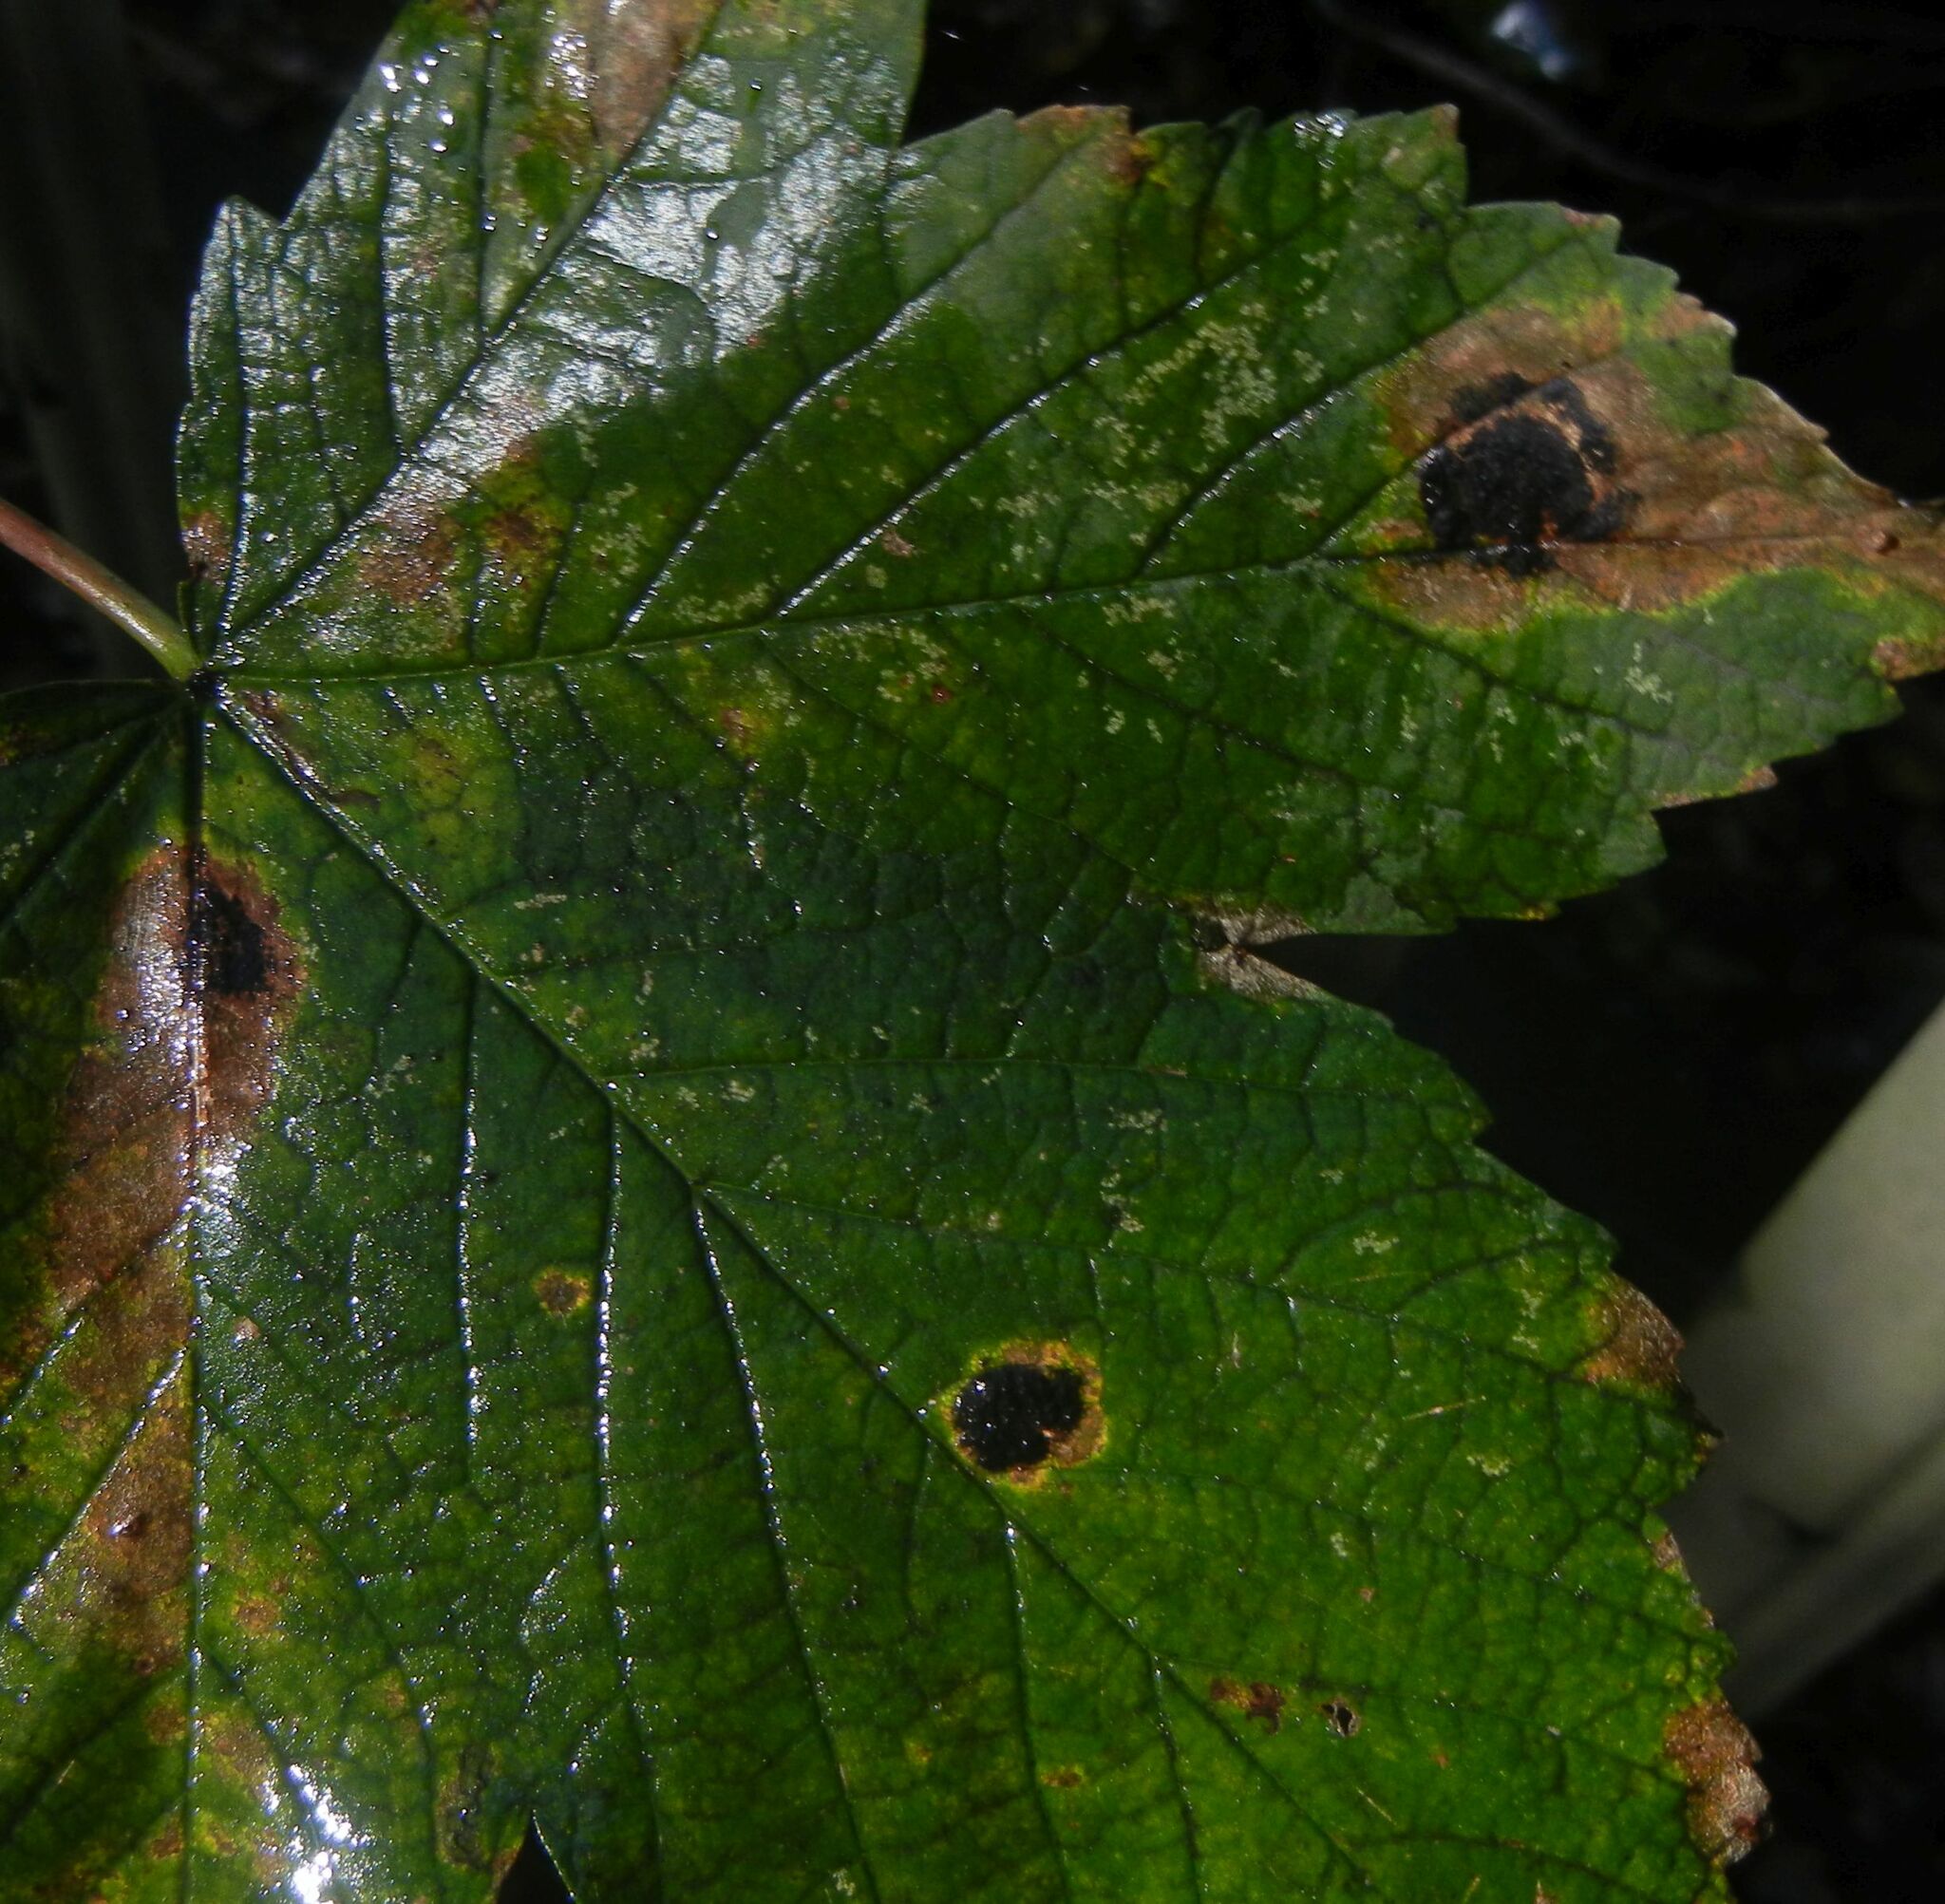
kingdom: Fungi
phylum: Ascomycota
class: Leotiomycetes
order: Rhytismatales
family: Rhytismataceae
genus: Rhytisma
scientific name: Rhytisma acerinum
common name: European tar spot
